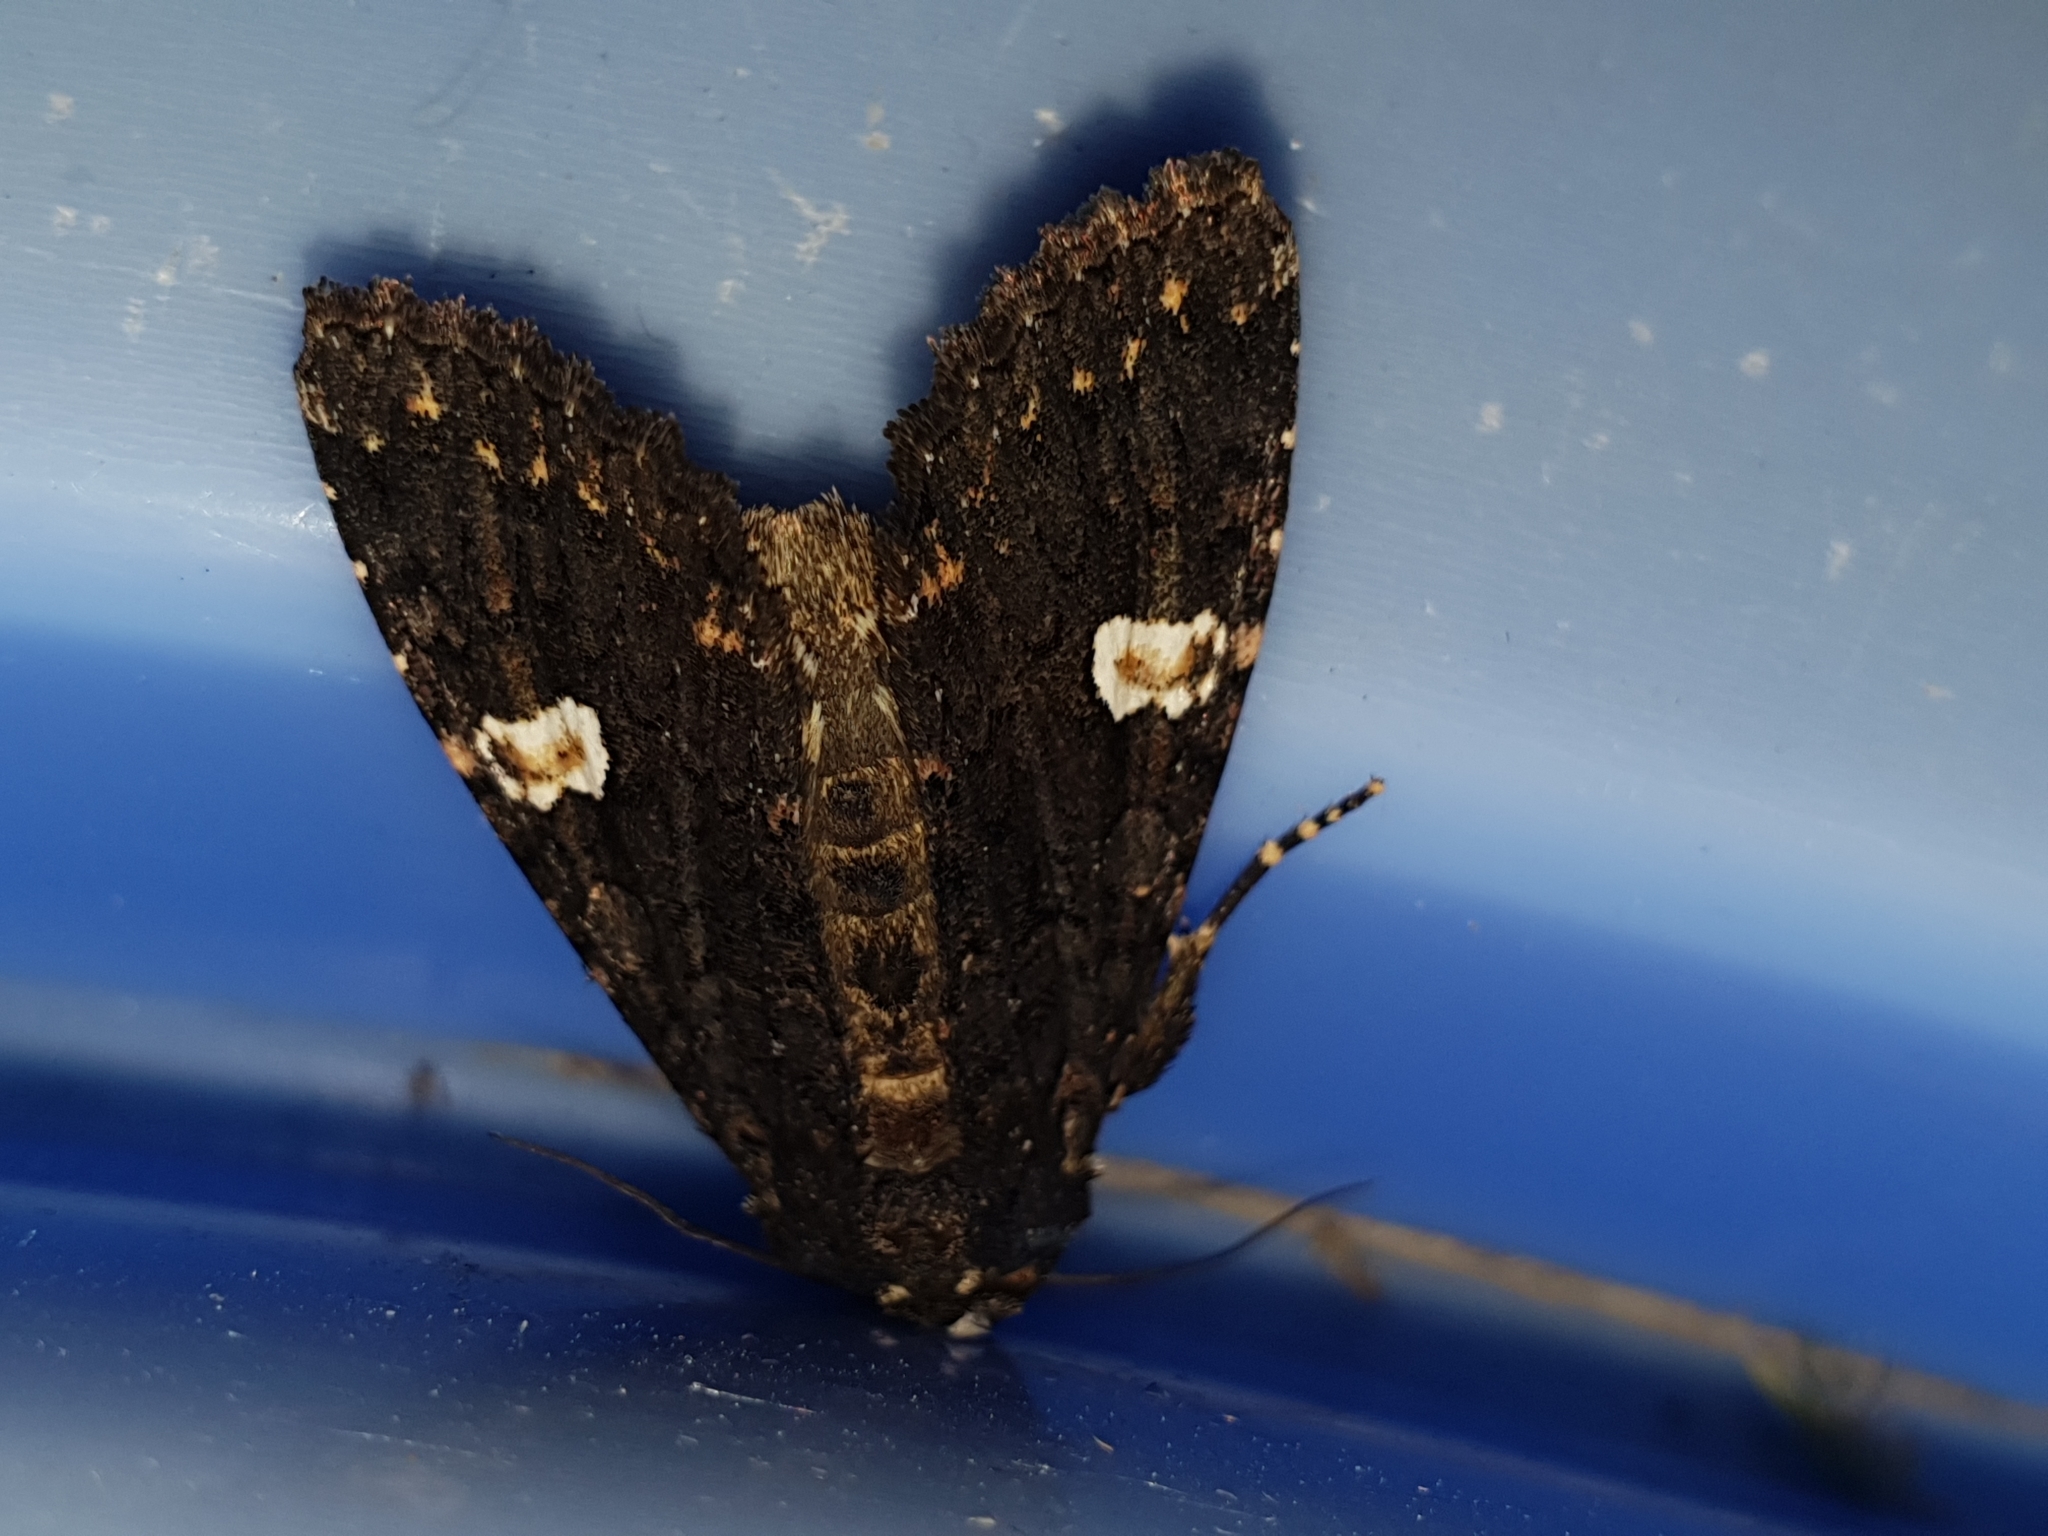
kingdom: Animalia
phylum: Arthropoda
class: Insecta
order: Lepidoptera
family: Noctuidae
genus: Melanchra
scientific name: Melanchra persicariae
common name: Dot moth
